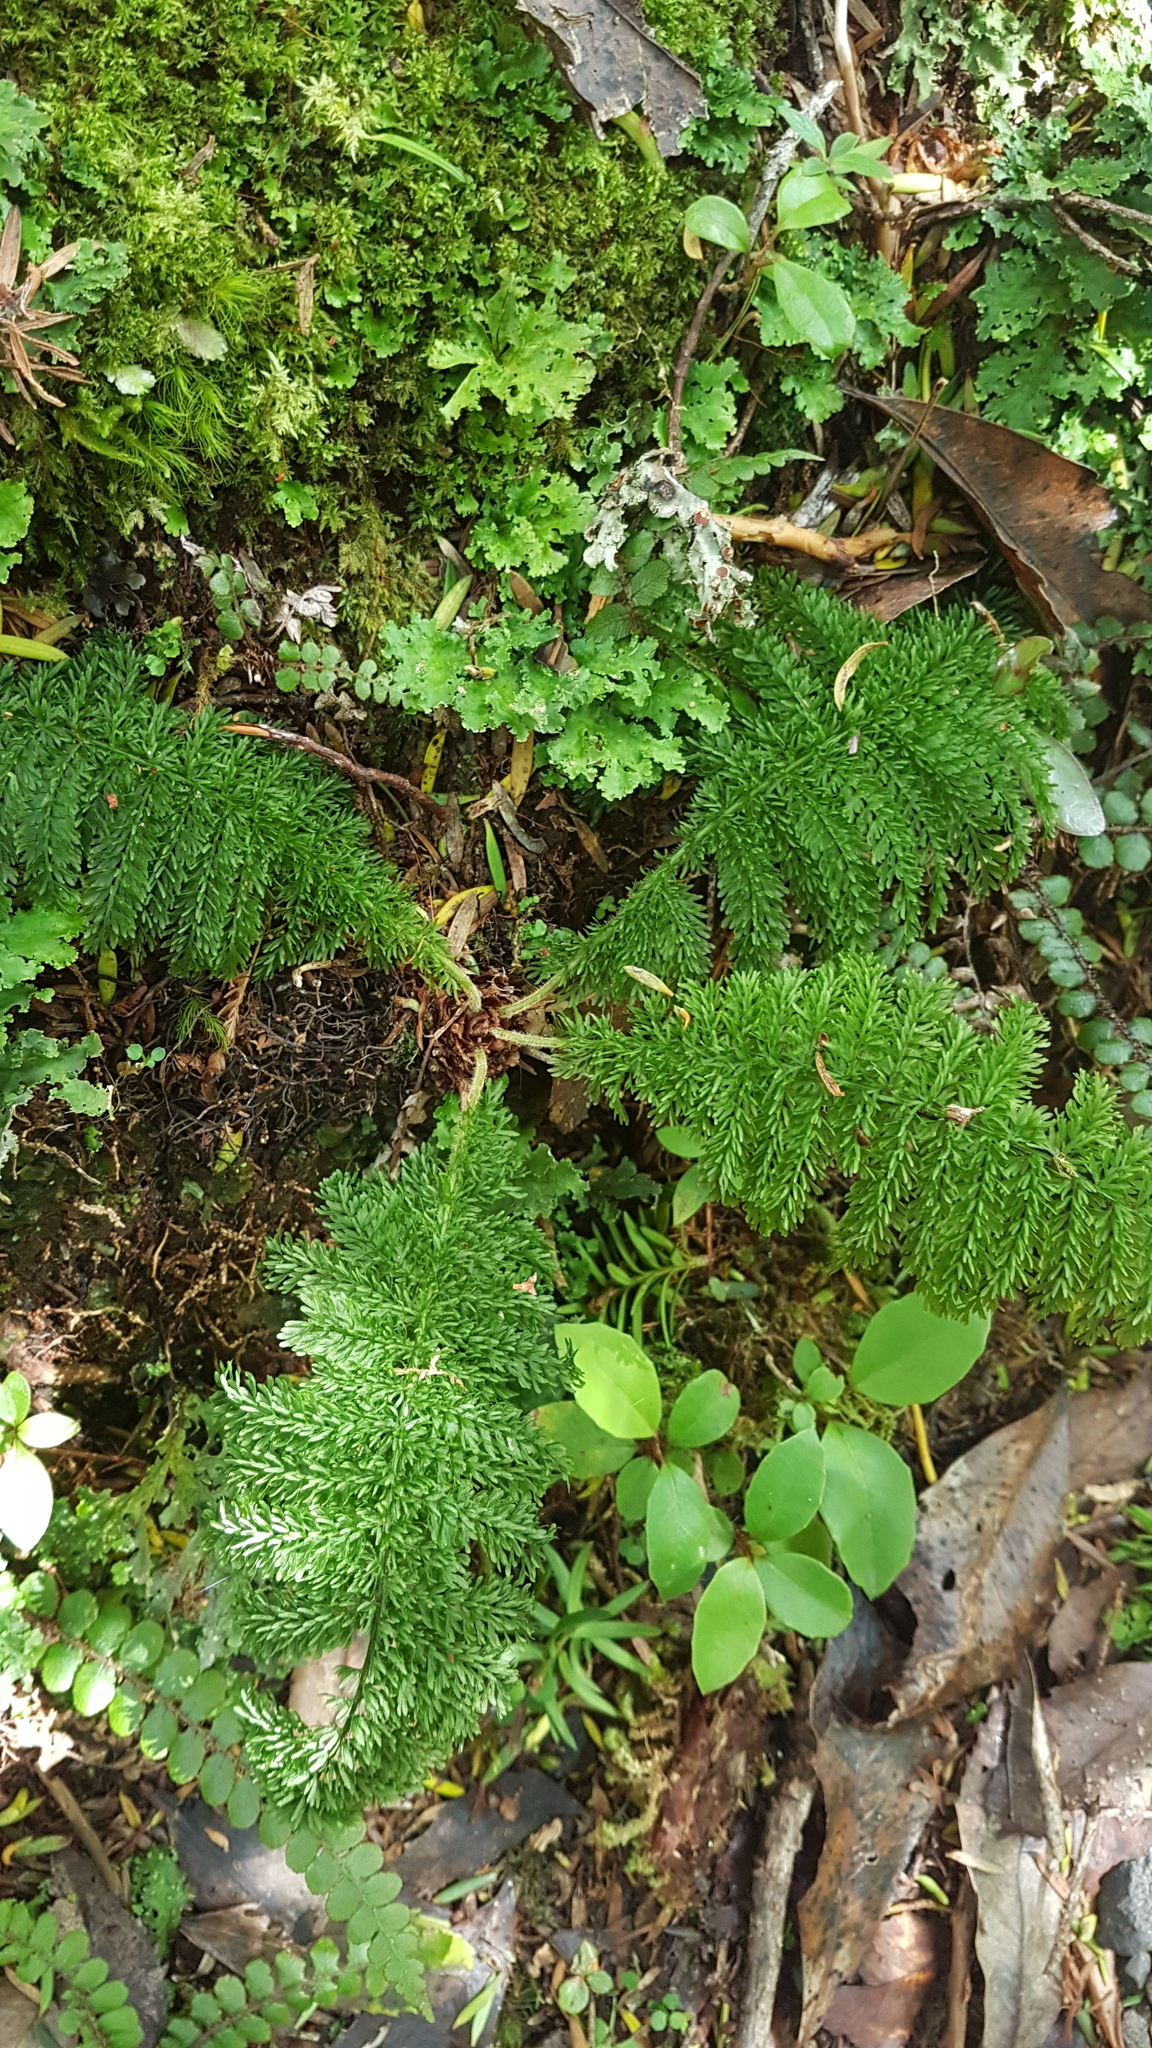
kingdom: Plantae
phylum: Tracheophyta
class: Polypodiopsida
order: Osmundales
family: Osmundaceae
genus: Leptopteris
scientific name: Leptopteris superba
